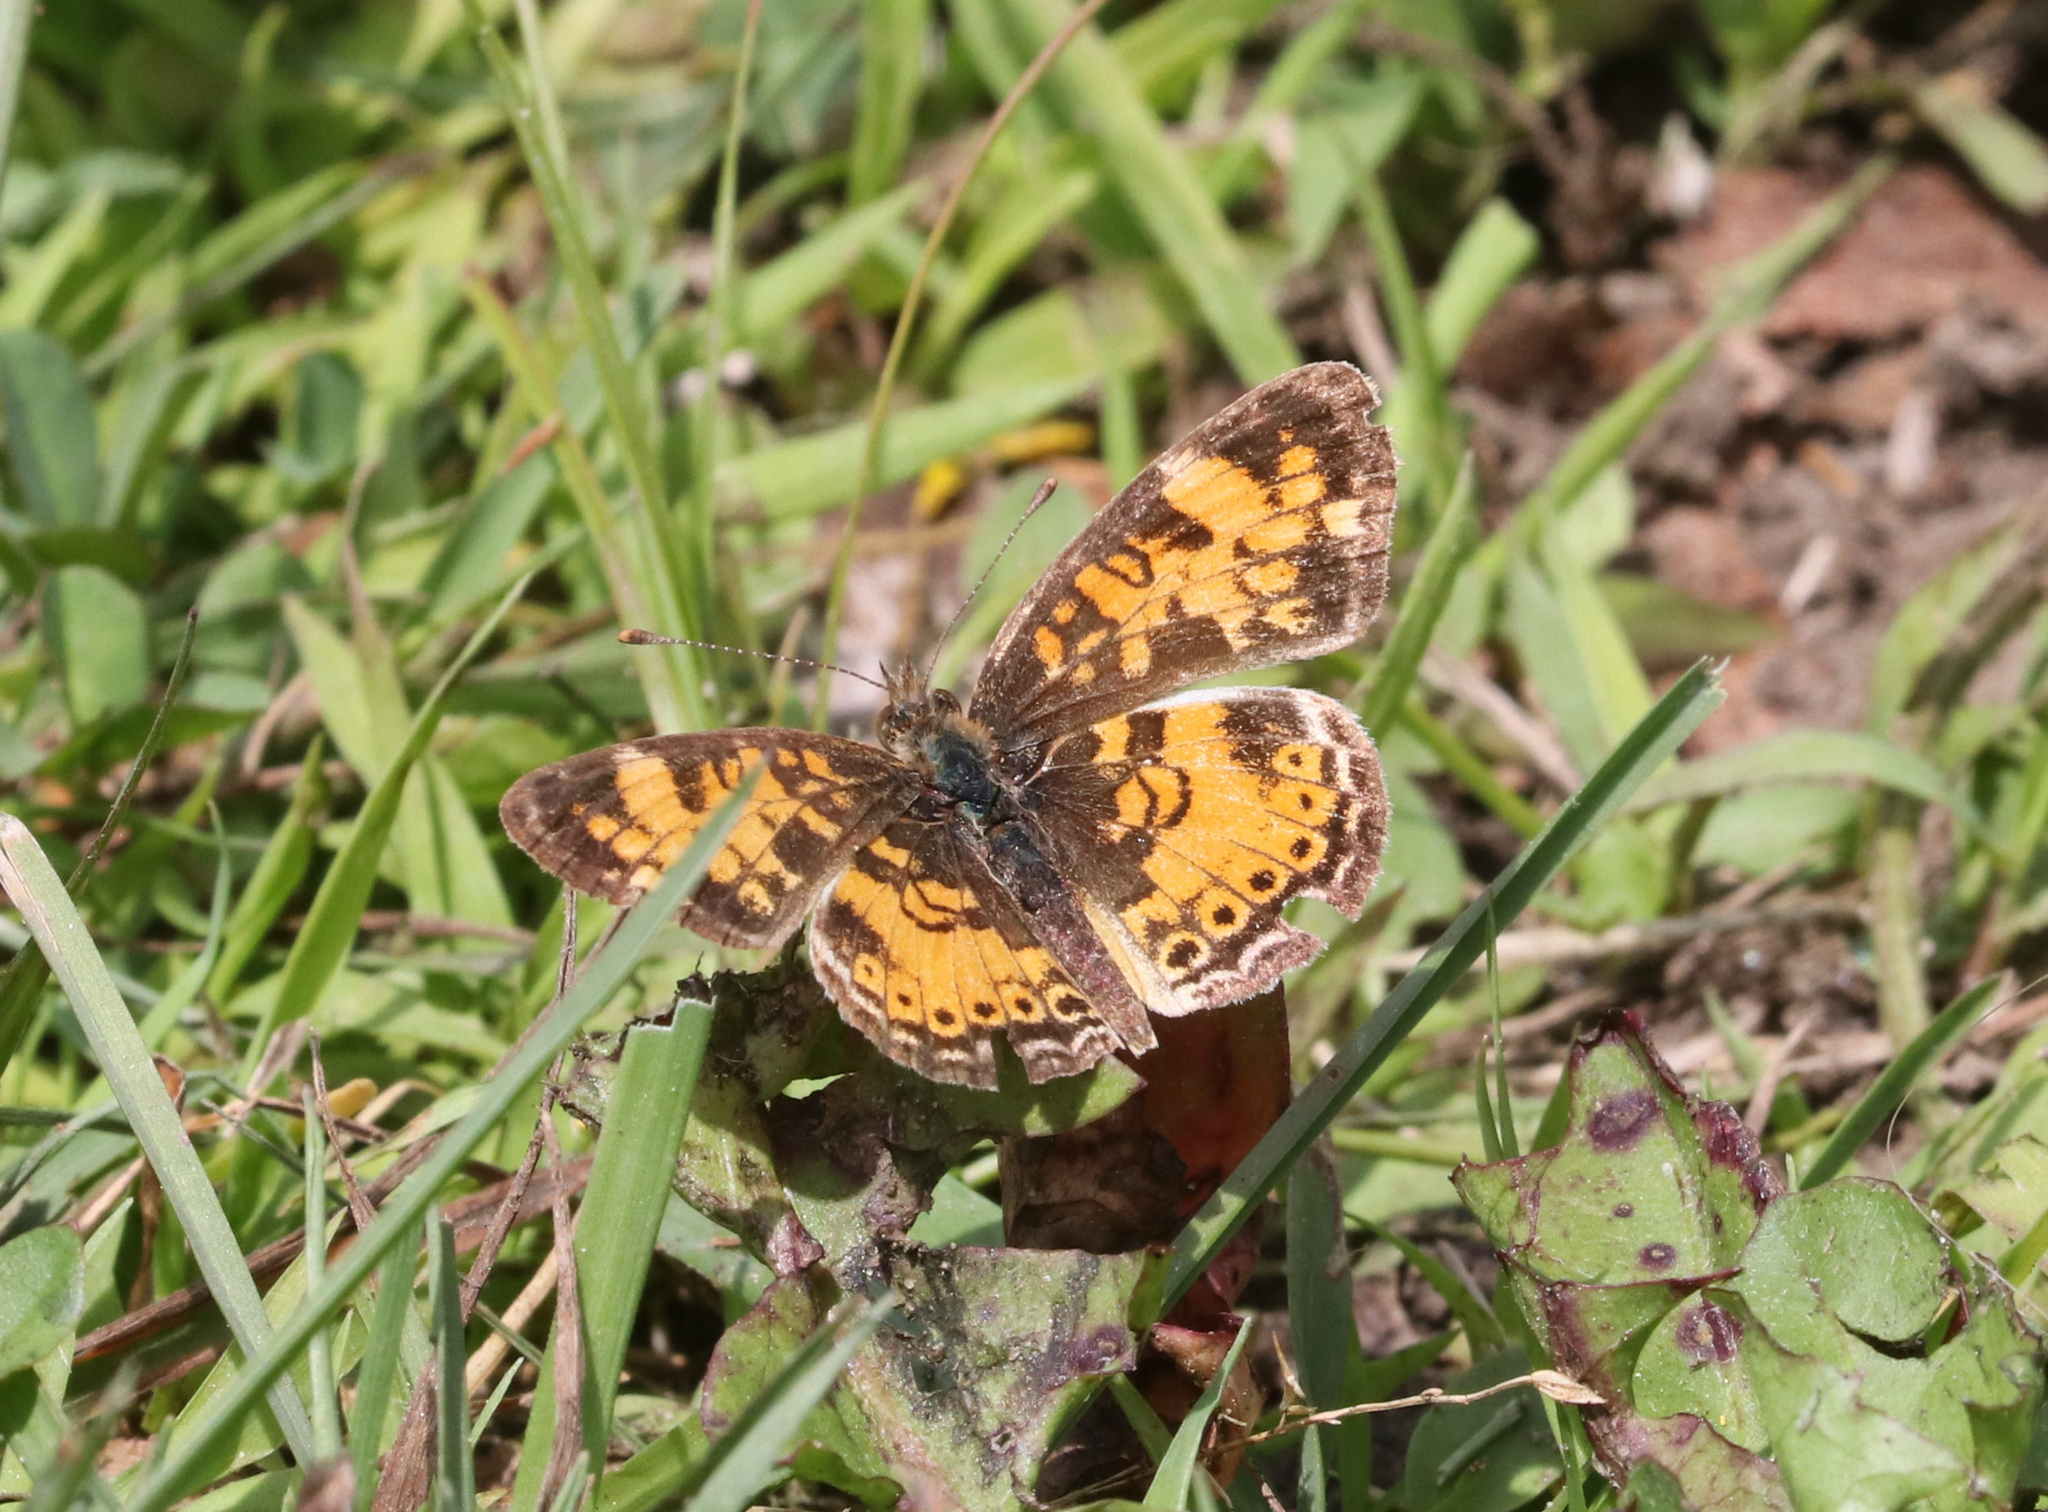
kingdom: Animalia
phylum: Arthropoda
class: Insecta
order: Lepidoptera
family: Nymphalidae
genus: Phyciodes
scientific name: Phyciodes tharos
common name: Pearl crescent
